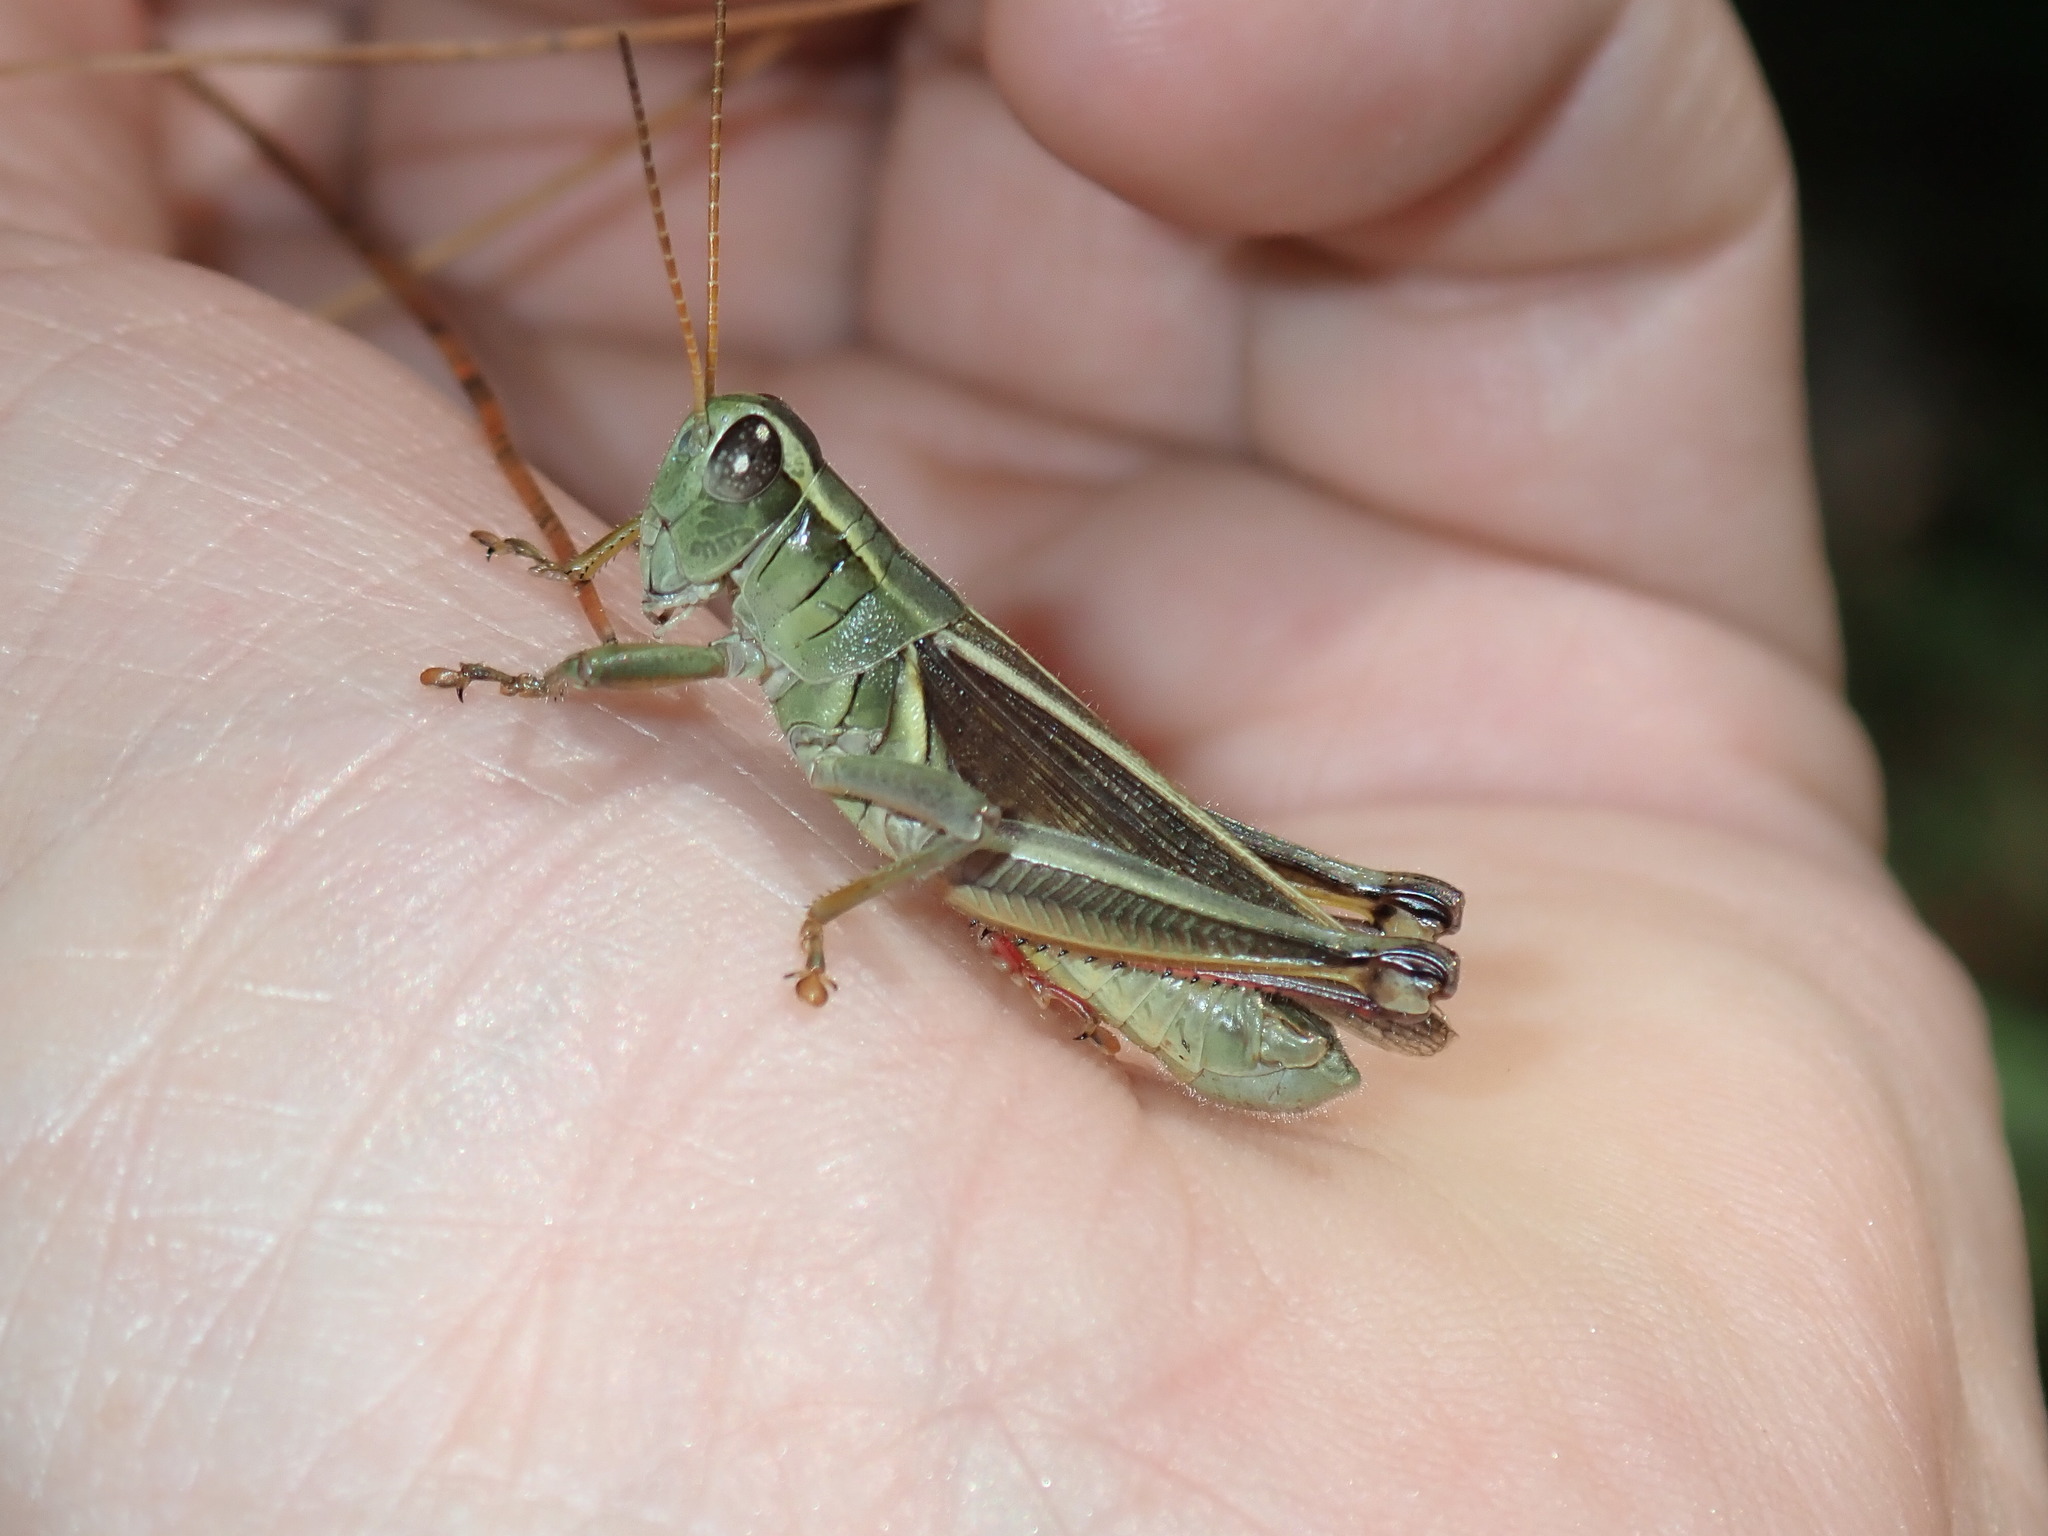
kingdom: Animalia
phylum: Arthropoda
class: Insecta
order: Orthoptera
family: Acrididae
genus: Melanoplus
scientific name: Melanoplus bivittatus
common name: Two-striped grasshopper
